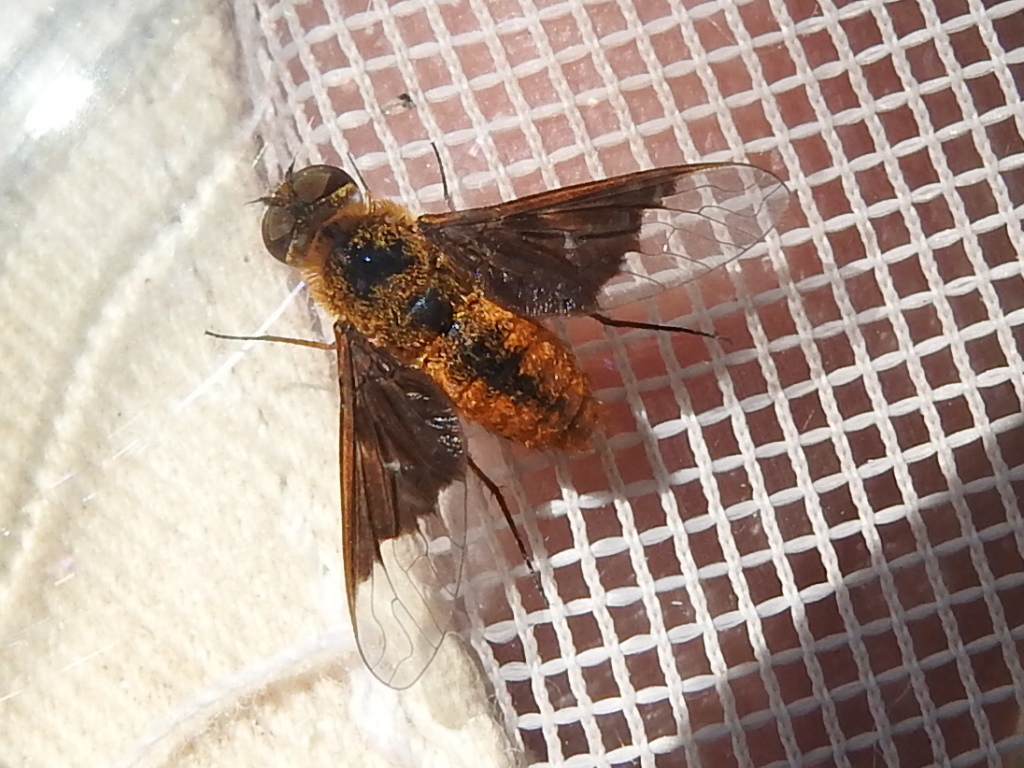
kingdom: Animalia
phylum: Arthropoda
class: Insecta
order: Diptera
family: Bombyliidae
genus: Chrysanthrax
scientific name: Chrysanthrax cypris
